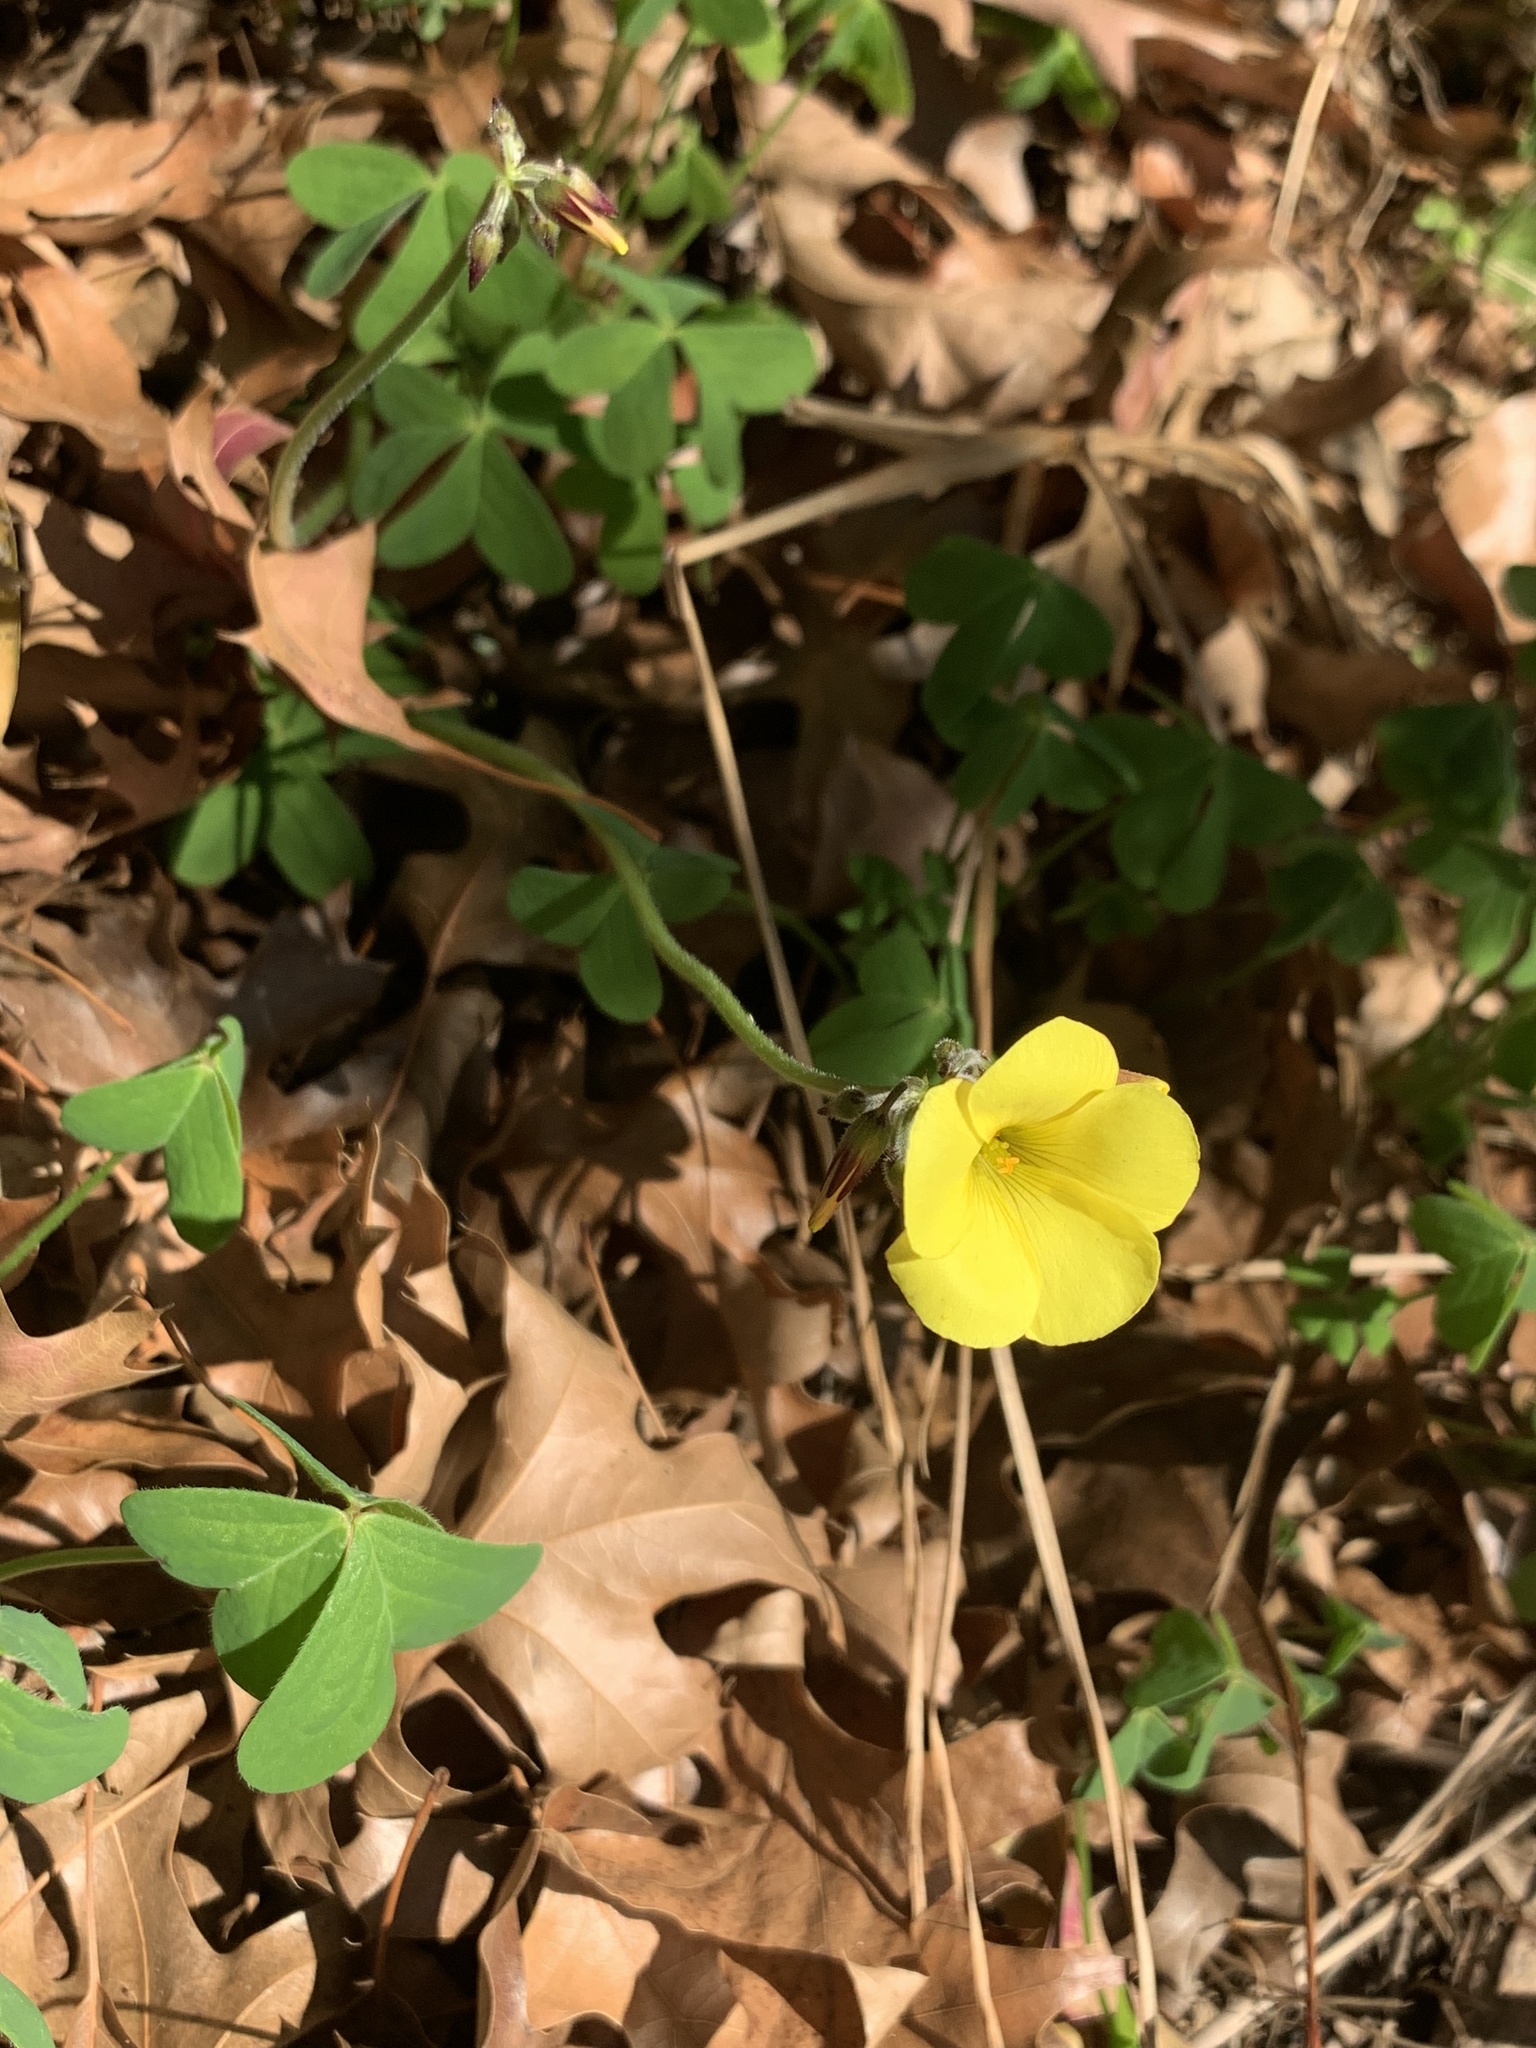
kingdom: Plantae
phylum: Tracheophyta
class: Magnoliopsida
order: Oxalidales
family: Oxalidaceae
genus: Oxalis
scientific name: Oxalis pes-caprae
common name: Bermuda-buttercup
